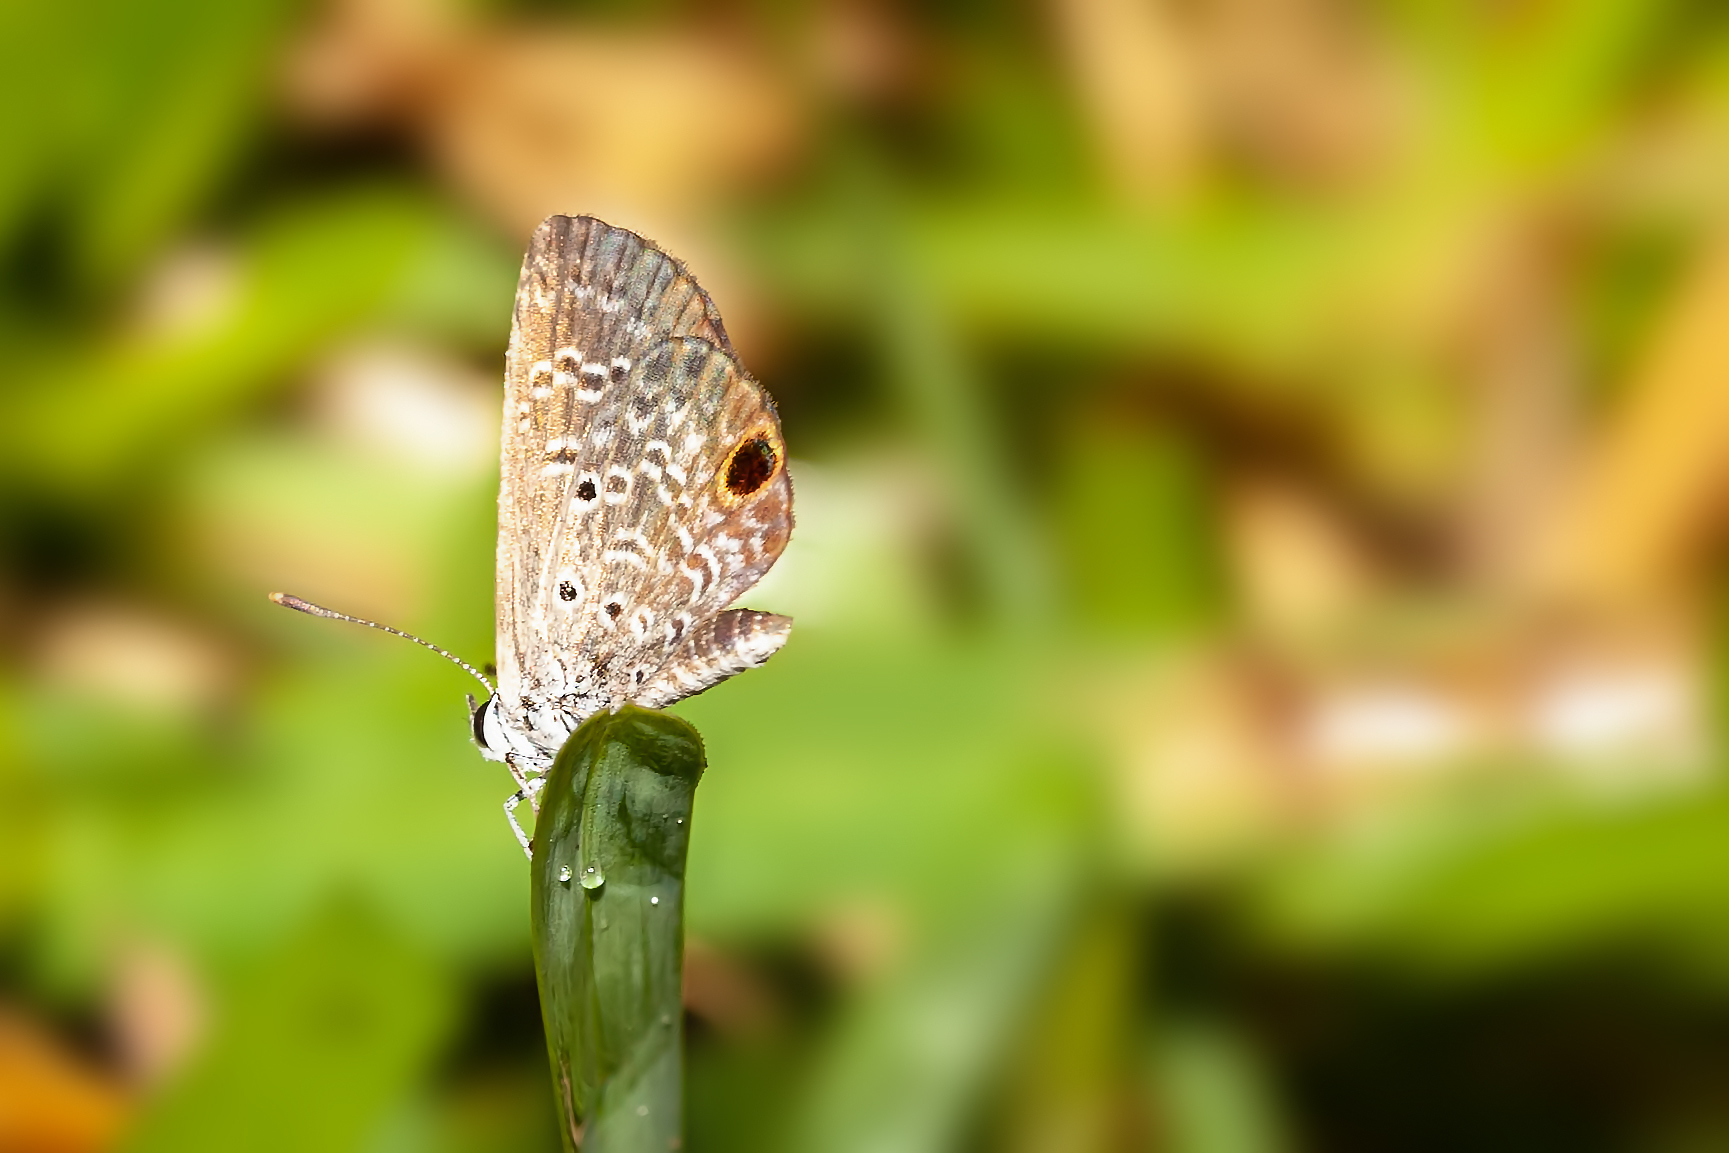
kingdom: Animalia
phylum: Arthropoda
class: Insecta
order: Lepidoptera
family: Lycaenidae
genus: Hemiargus
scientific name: Hemiargus ceraunus
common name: Ceraunus blue
